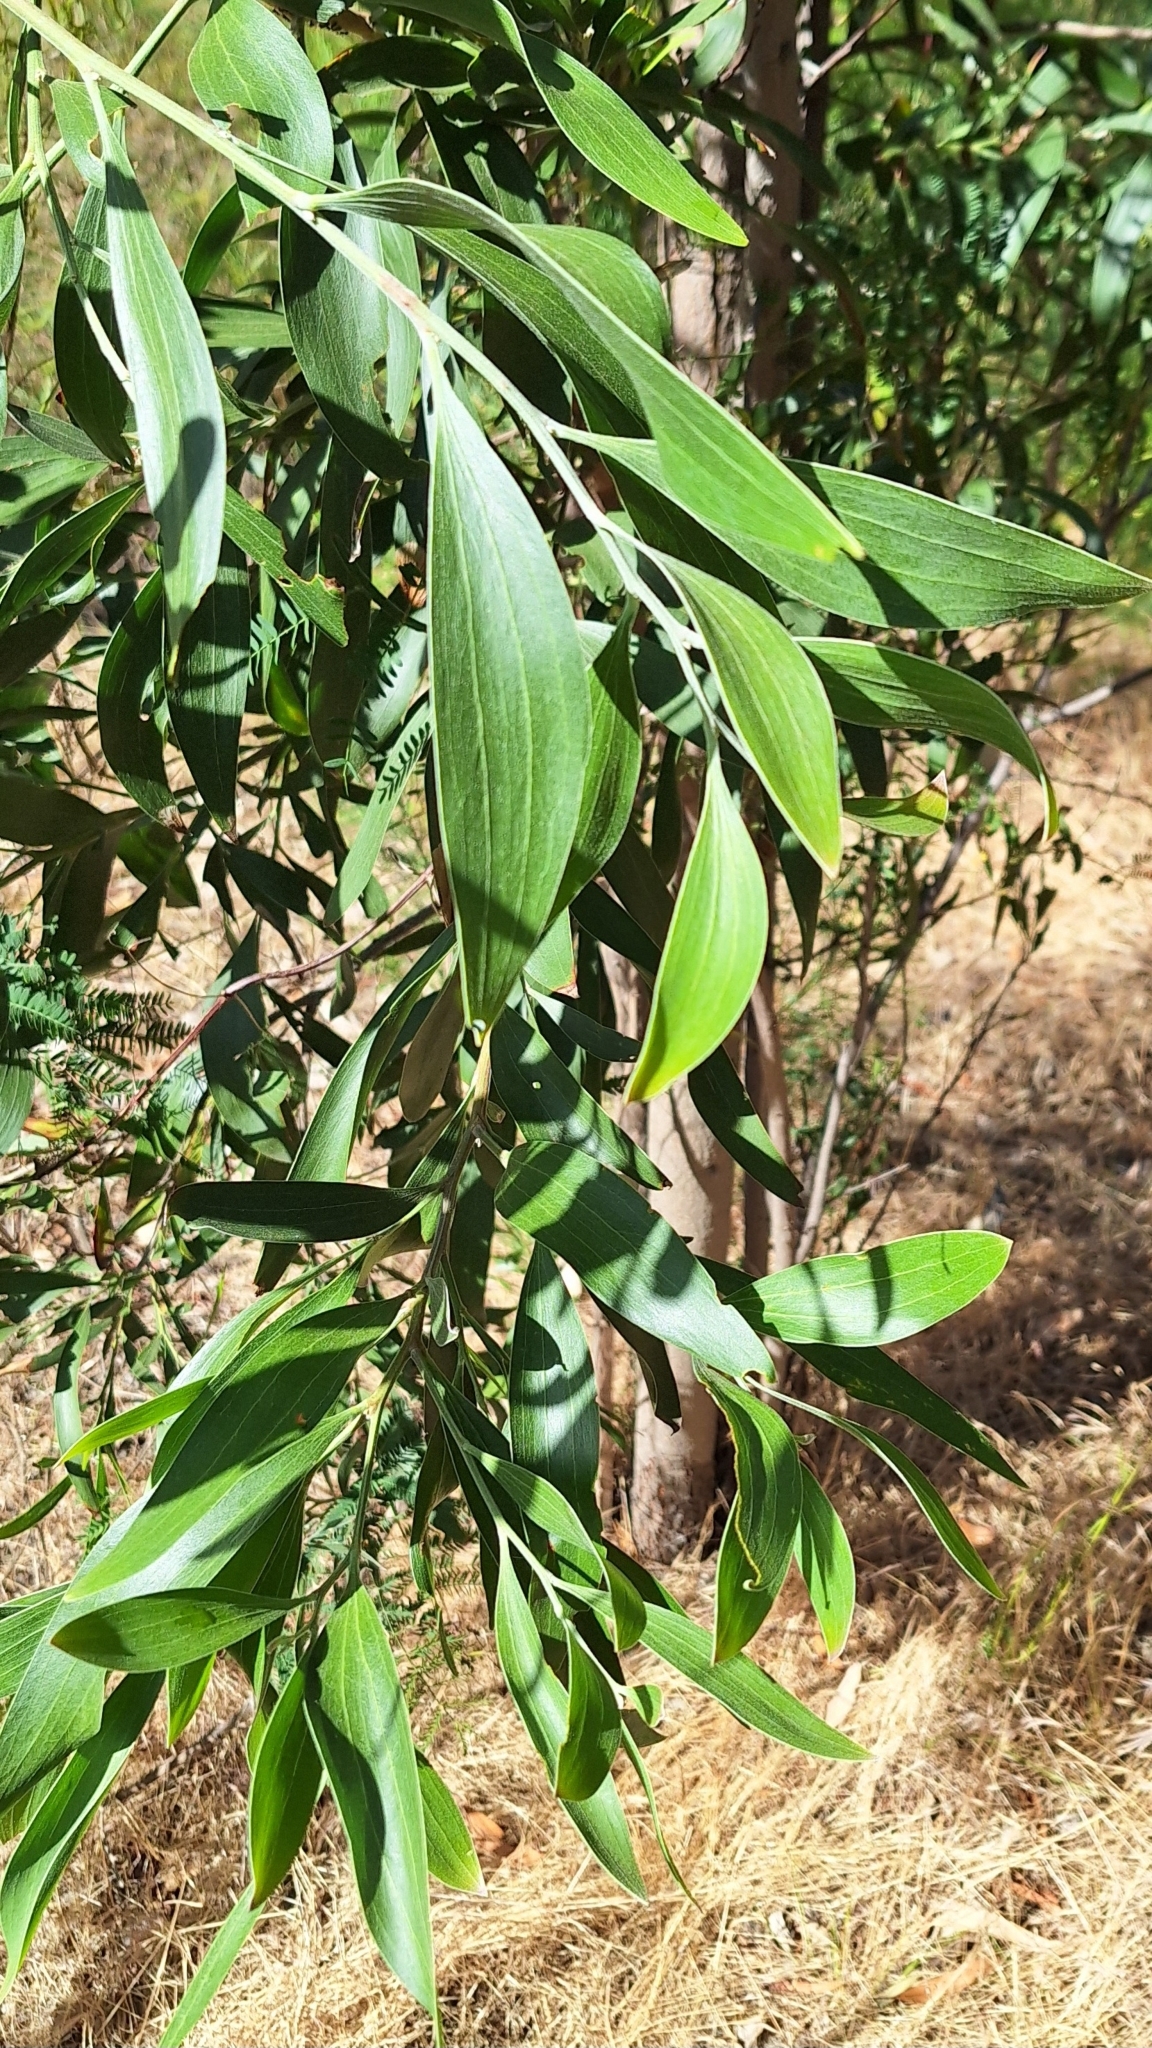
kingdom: Plantae
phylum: Tracheophyta
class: Magnoliopsida
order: Fabales
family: Fabaceae
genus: Acacia
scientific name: Acacia melanoxylon
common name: Blackwood
